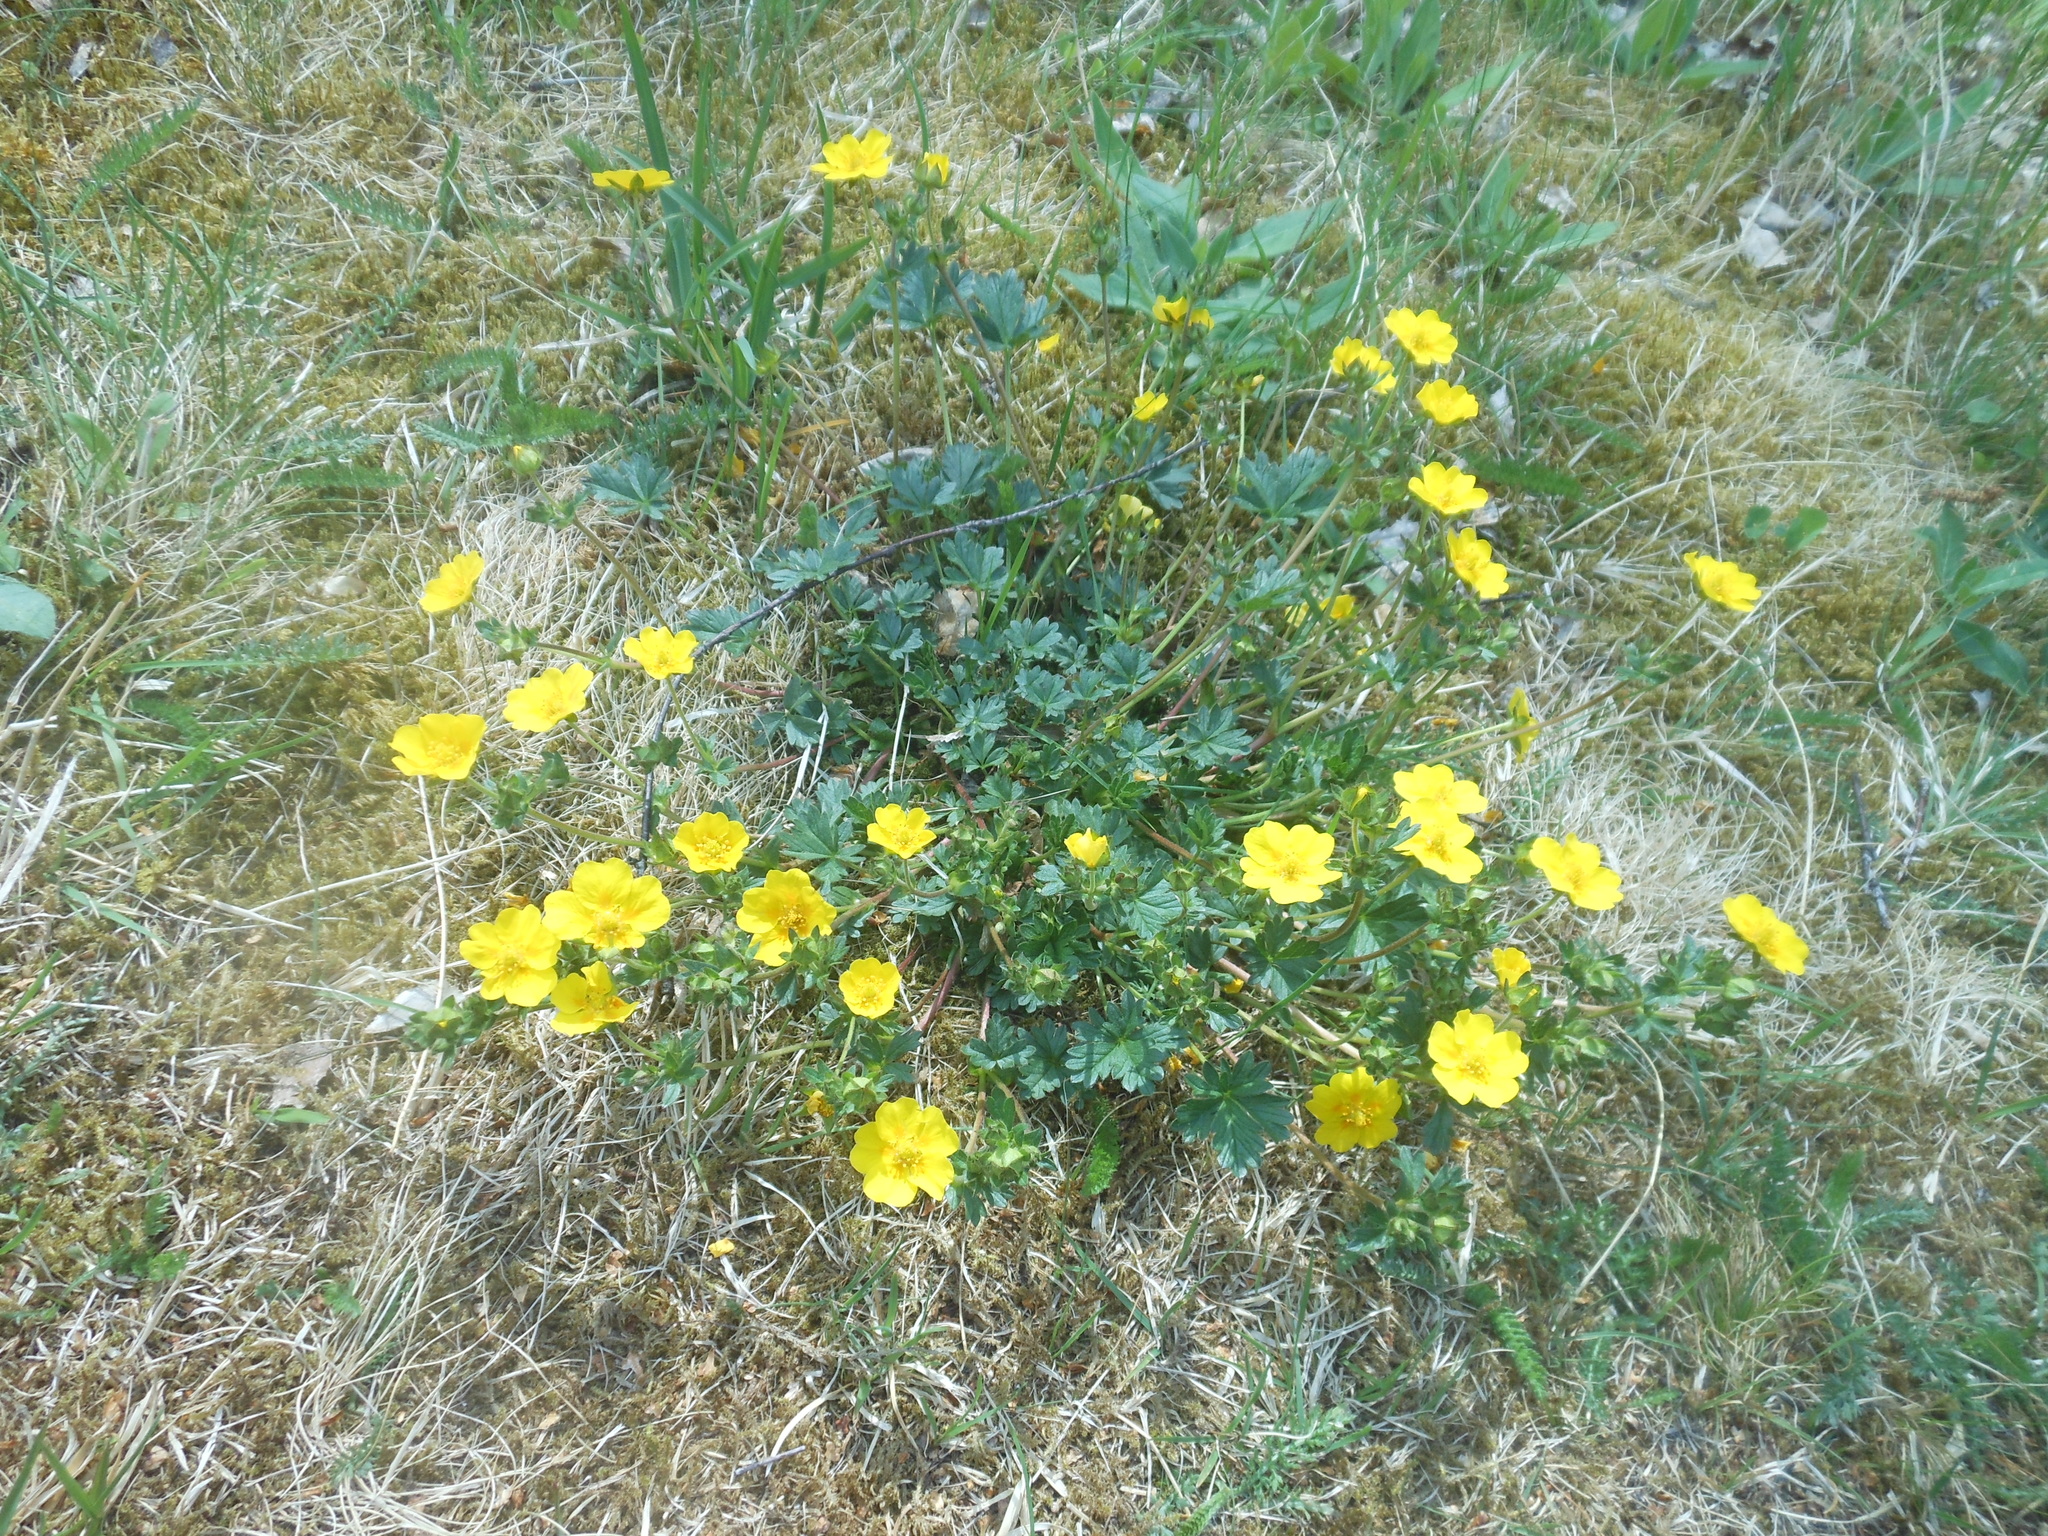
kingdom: Plantae
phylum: Tracheophyta
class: Magnoliopsida
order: Rosales
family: Rosaceae
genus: Potentilla
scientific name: Potentilla crantzii
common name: Alpine cinquefoil
